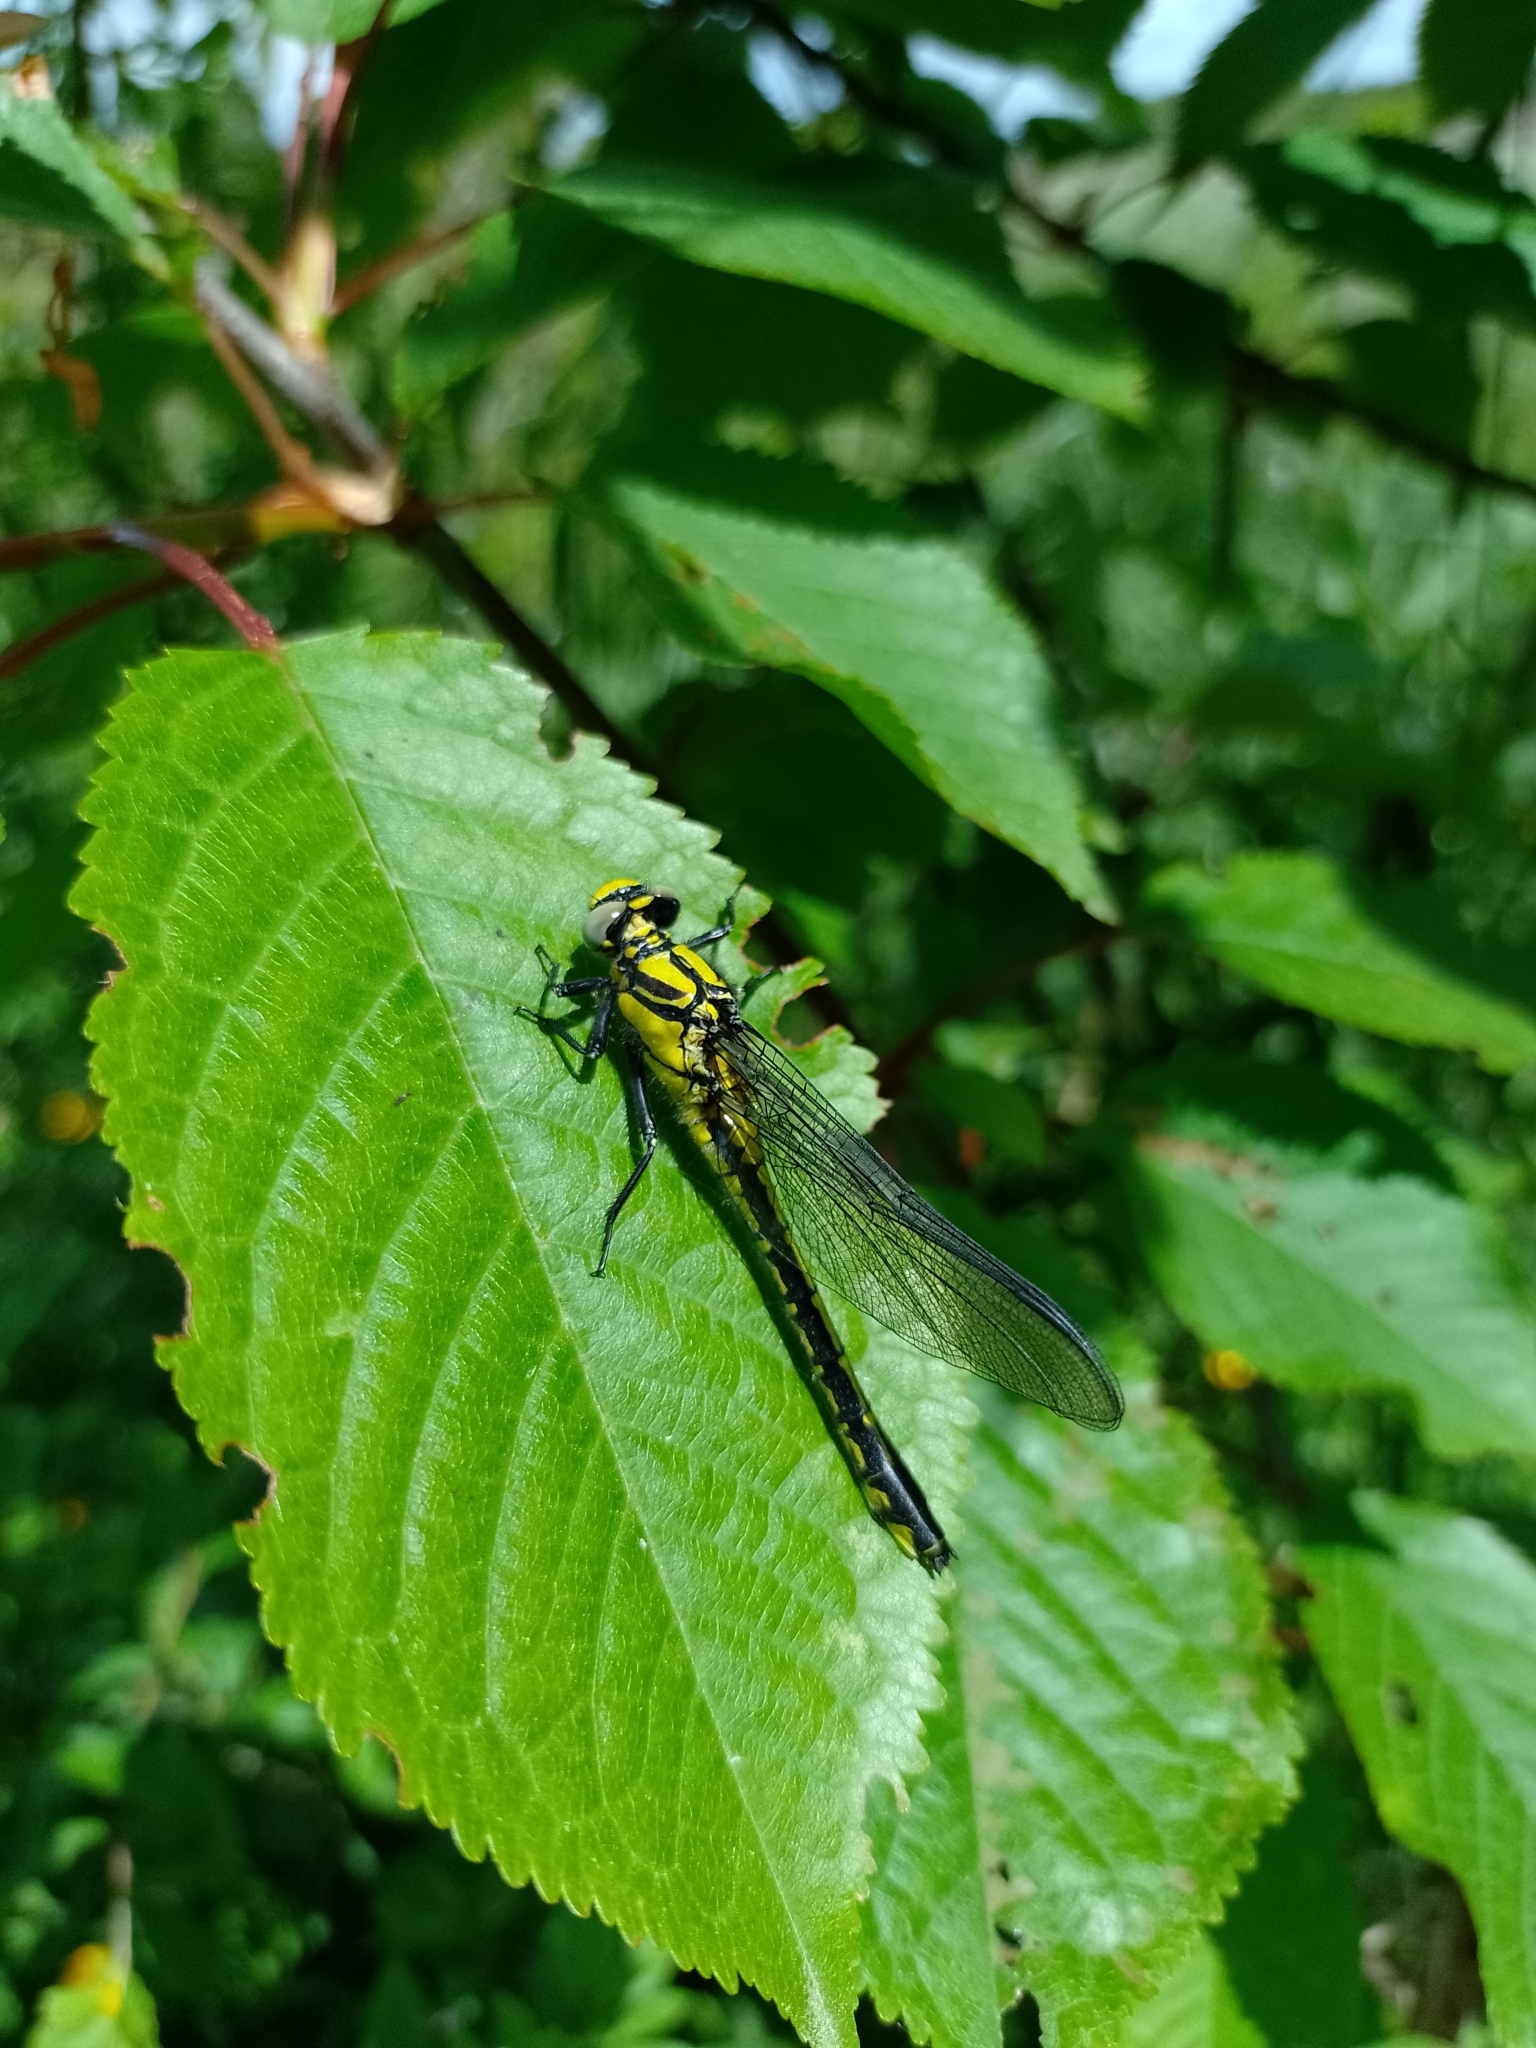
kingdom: Animalia
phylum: Arthropoda
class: Insecta
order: Odonata
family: Gomphidae
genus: Gomphus
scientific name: Gomphus vulgatissimus
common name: Club-tailed dragonfly
